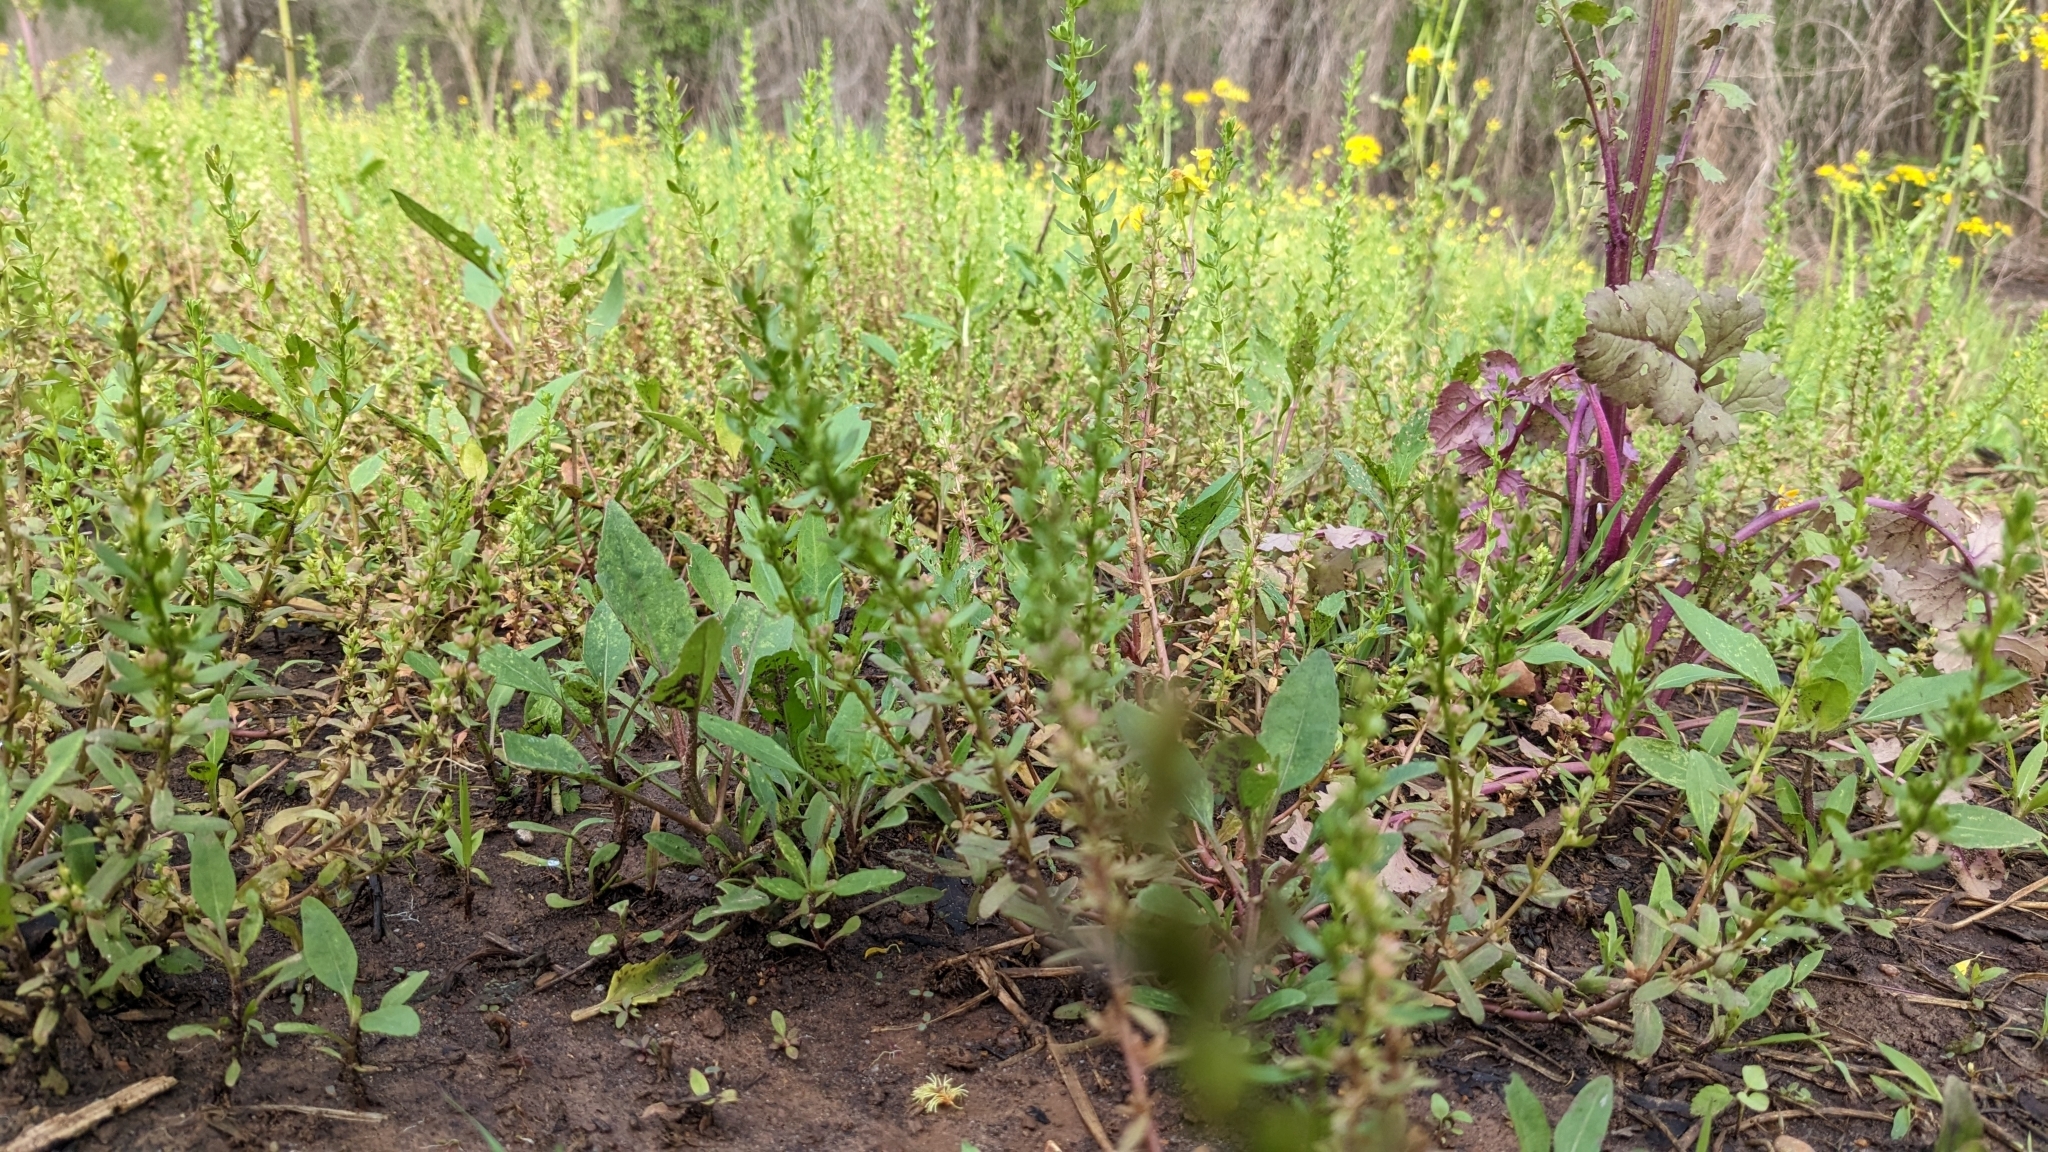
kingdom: Plantae
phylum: Tracheophyta
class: Magnoliopsida
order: Lamiales
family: Plantaginaceae
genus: Veronica
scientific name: Veronica peregrina
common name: Neckweed
